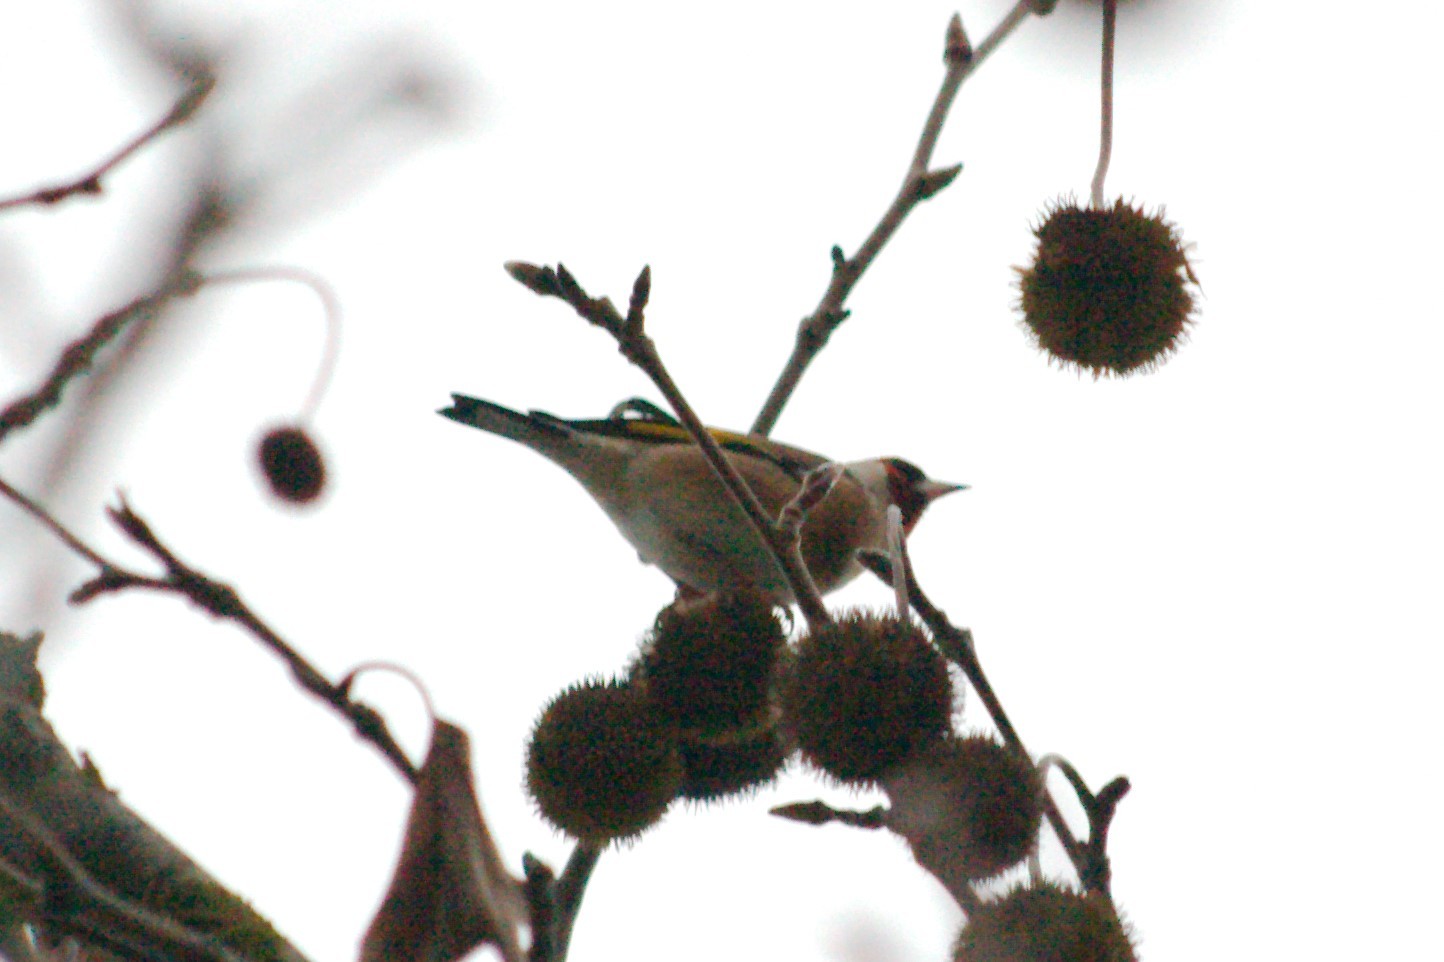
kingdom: Animalia
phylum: Chordata
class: Aves
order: Passeriformes
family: Fringillidae
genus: Carduelis
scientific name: Carduelis carduelis
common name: European goldfinch
